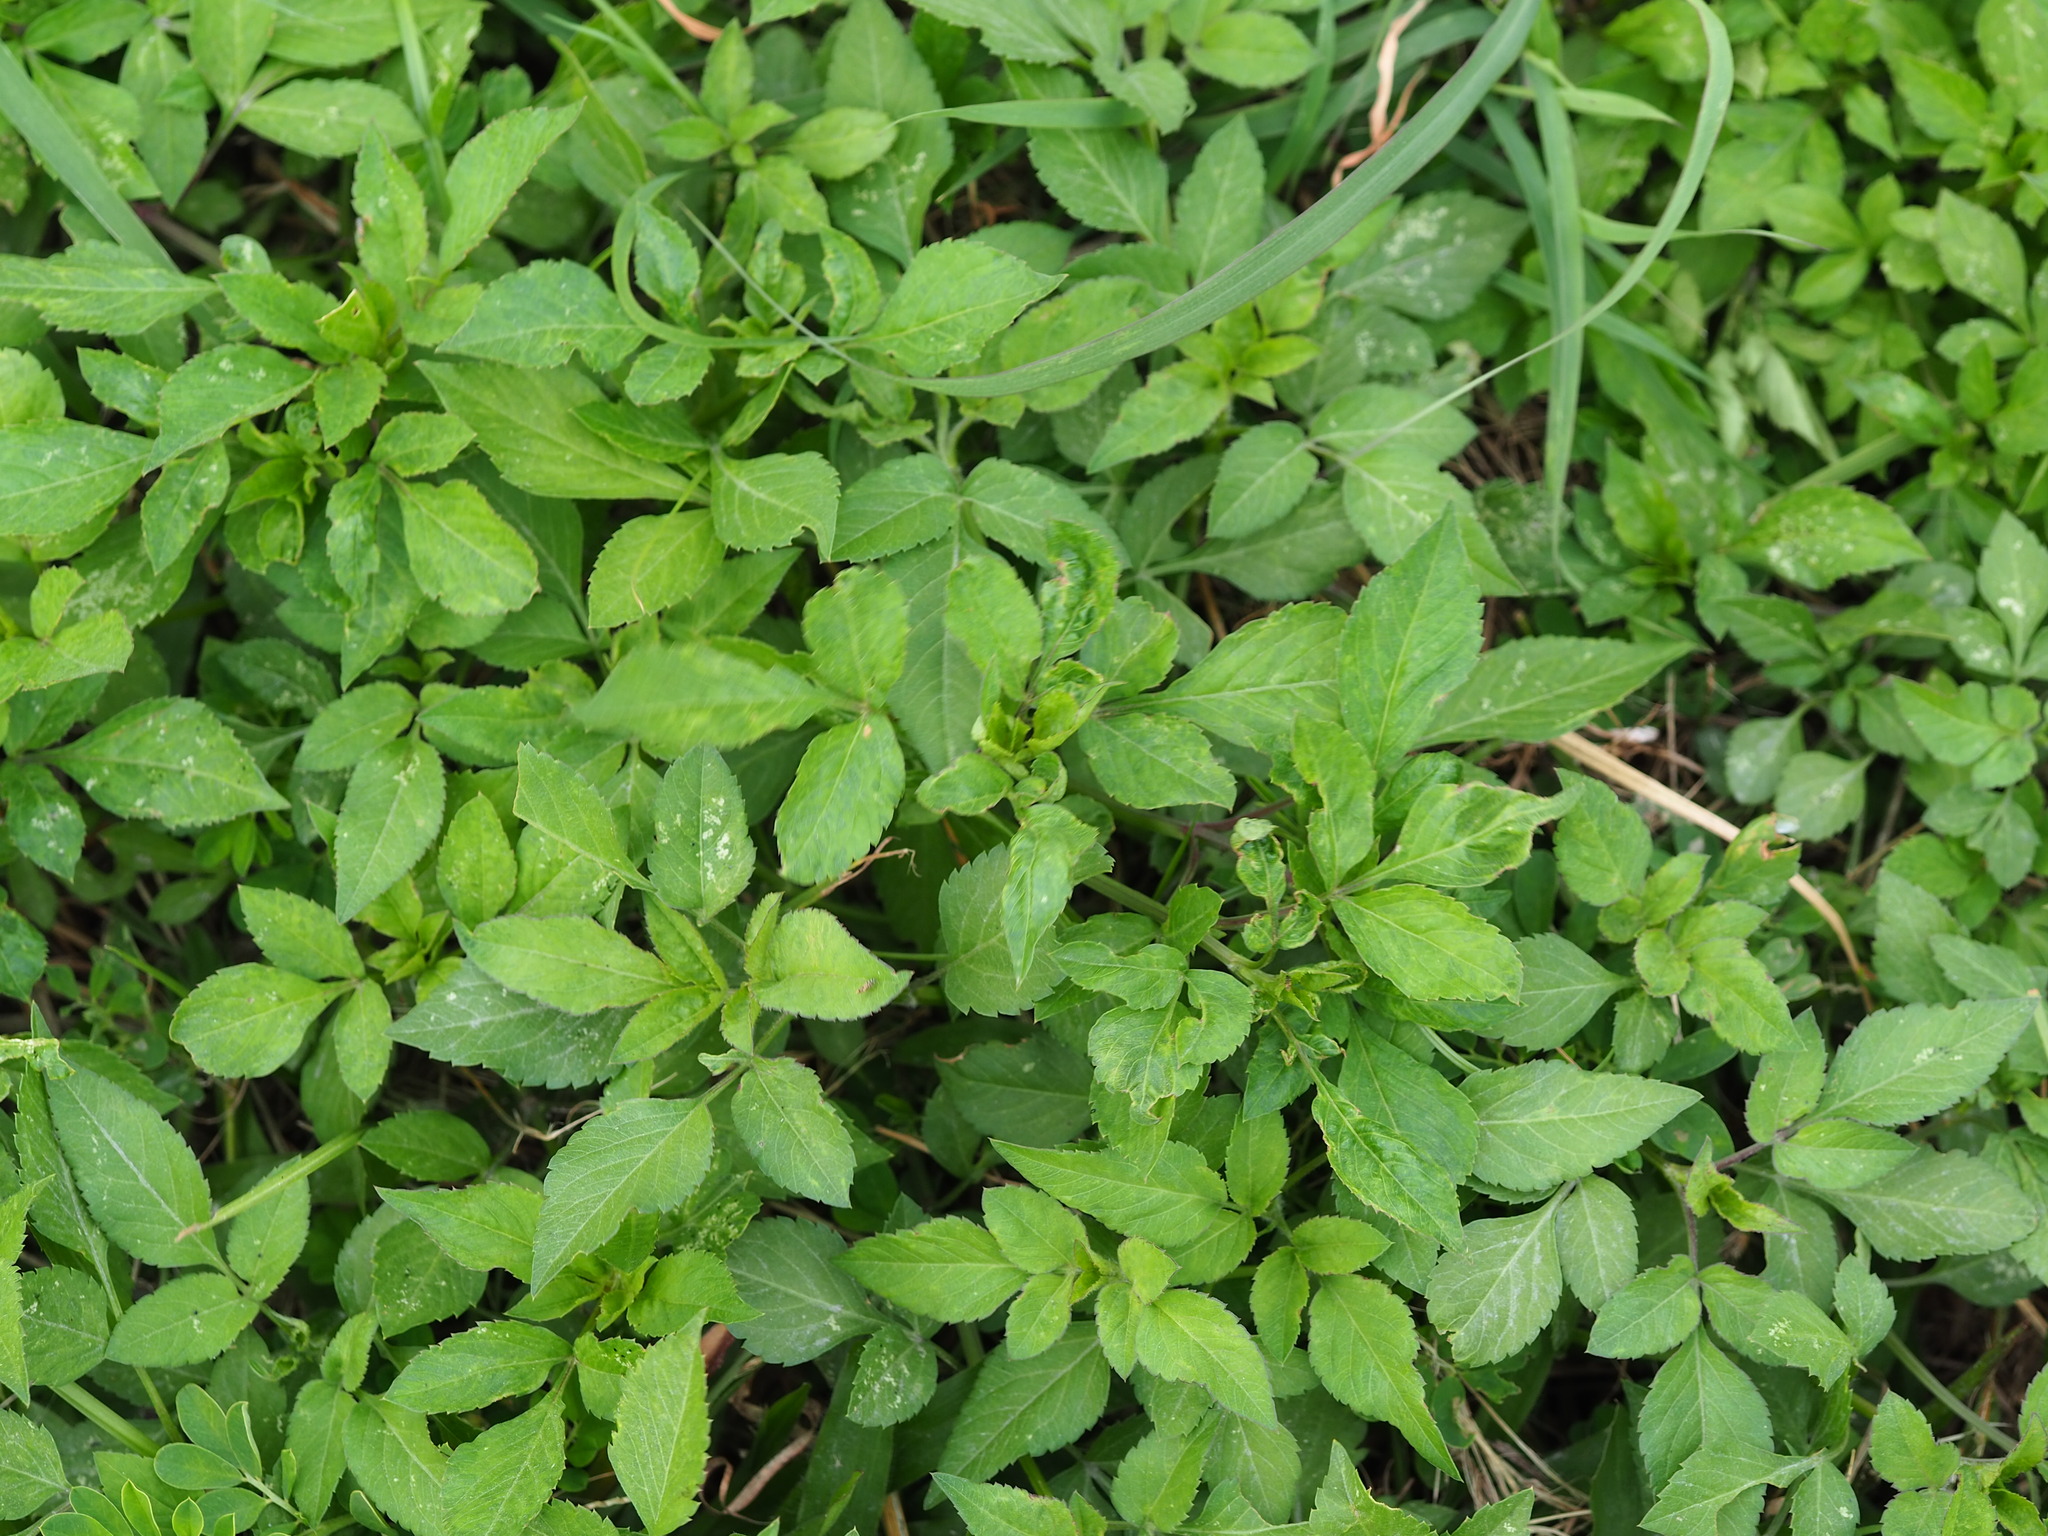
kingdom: Plantae
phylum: Tracheophyta
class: Magnoliopsida
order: Asterales
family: Asteraceae
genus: Bidens
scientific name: Bidens alba
